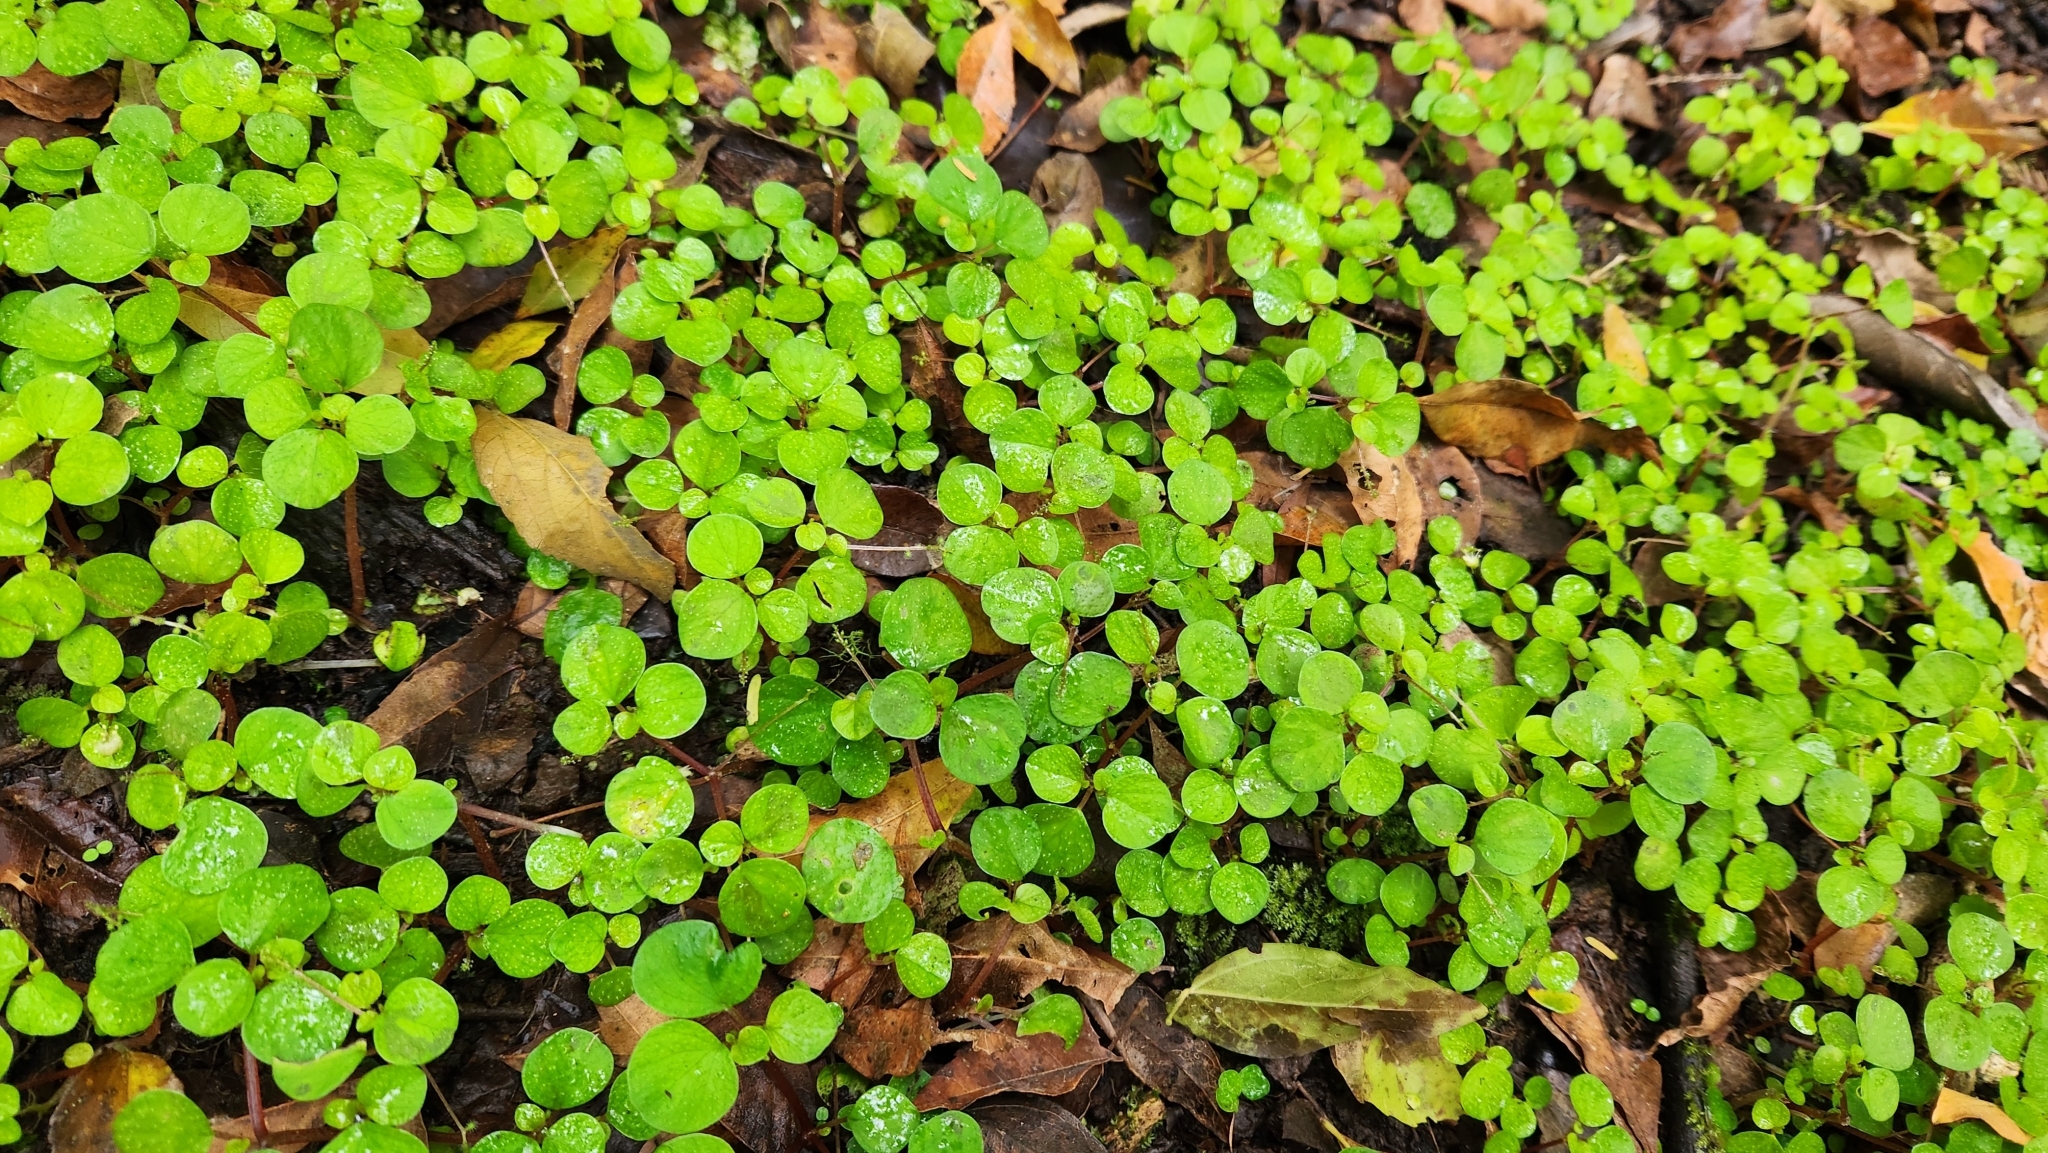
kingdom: Plantae
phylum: Tracheophyta
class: Magnoliopsida
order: Piperales
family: Piperaceae
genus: Peperomia
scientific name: Peperomia hispidula
